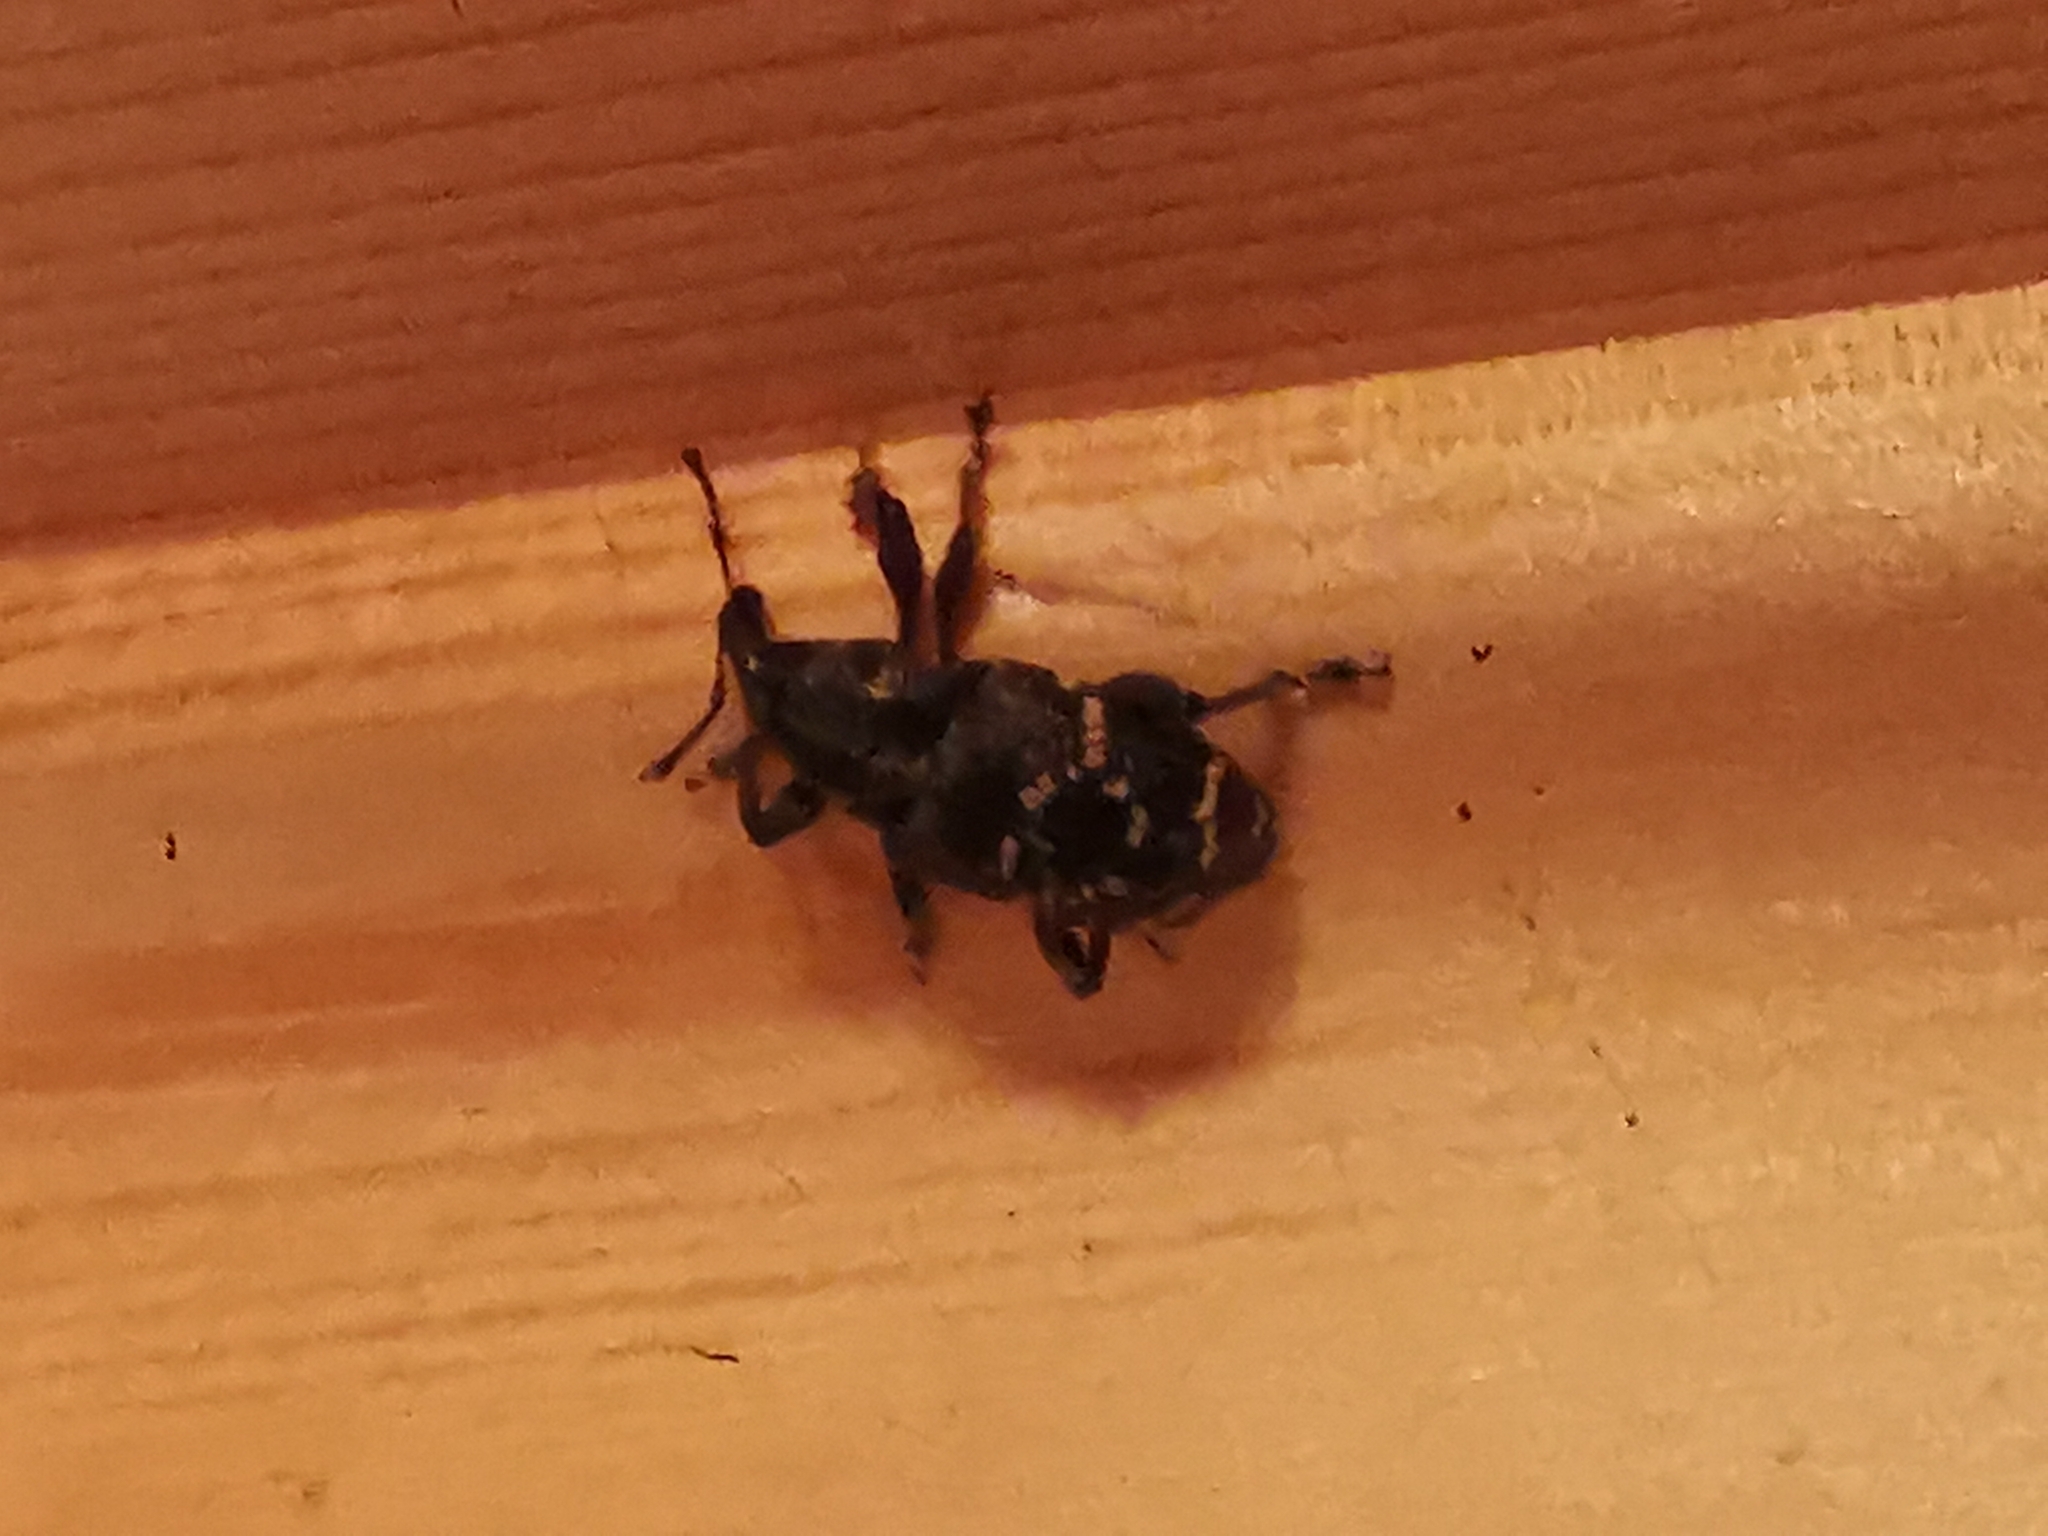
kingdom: Animalia
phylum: Arthropoda
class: Insecta
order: Coleoptera
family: Curculionidae
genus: Hylobius
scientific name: Hylobius abietis
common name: Large pine weevil
